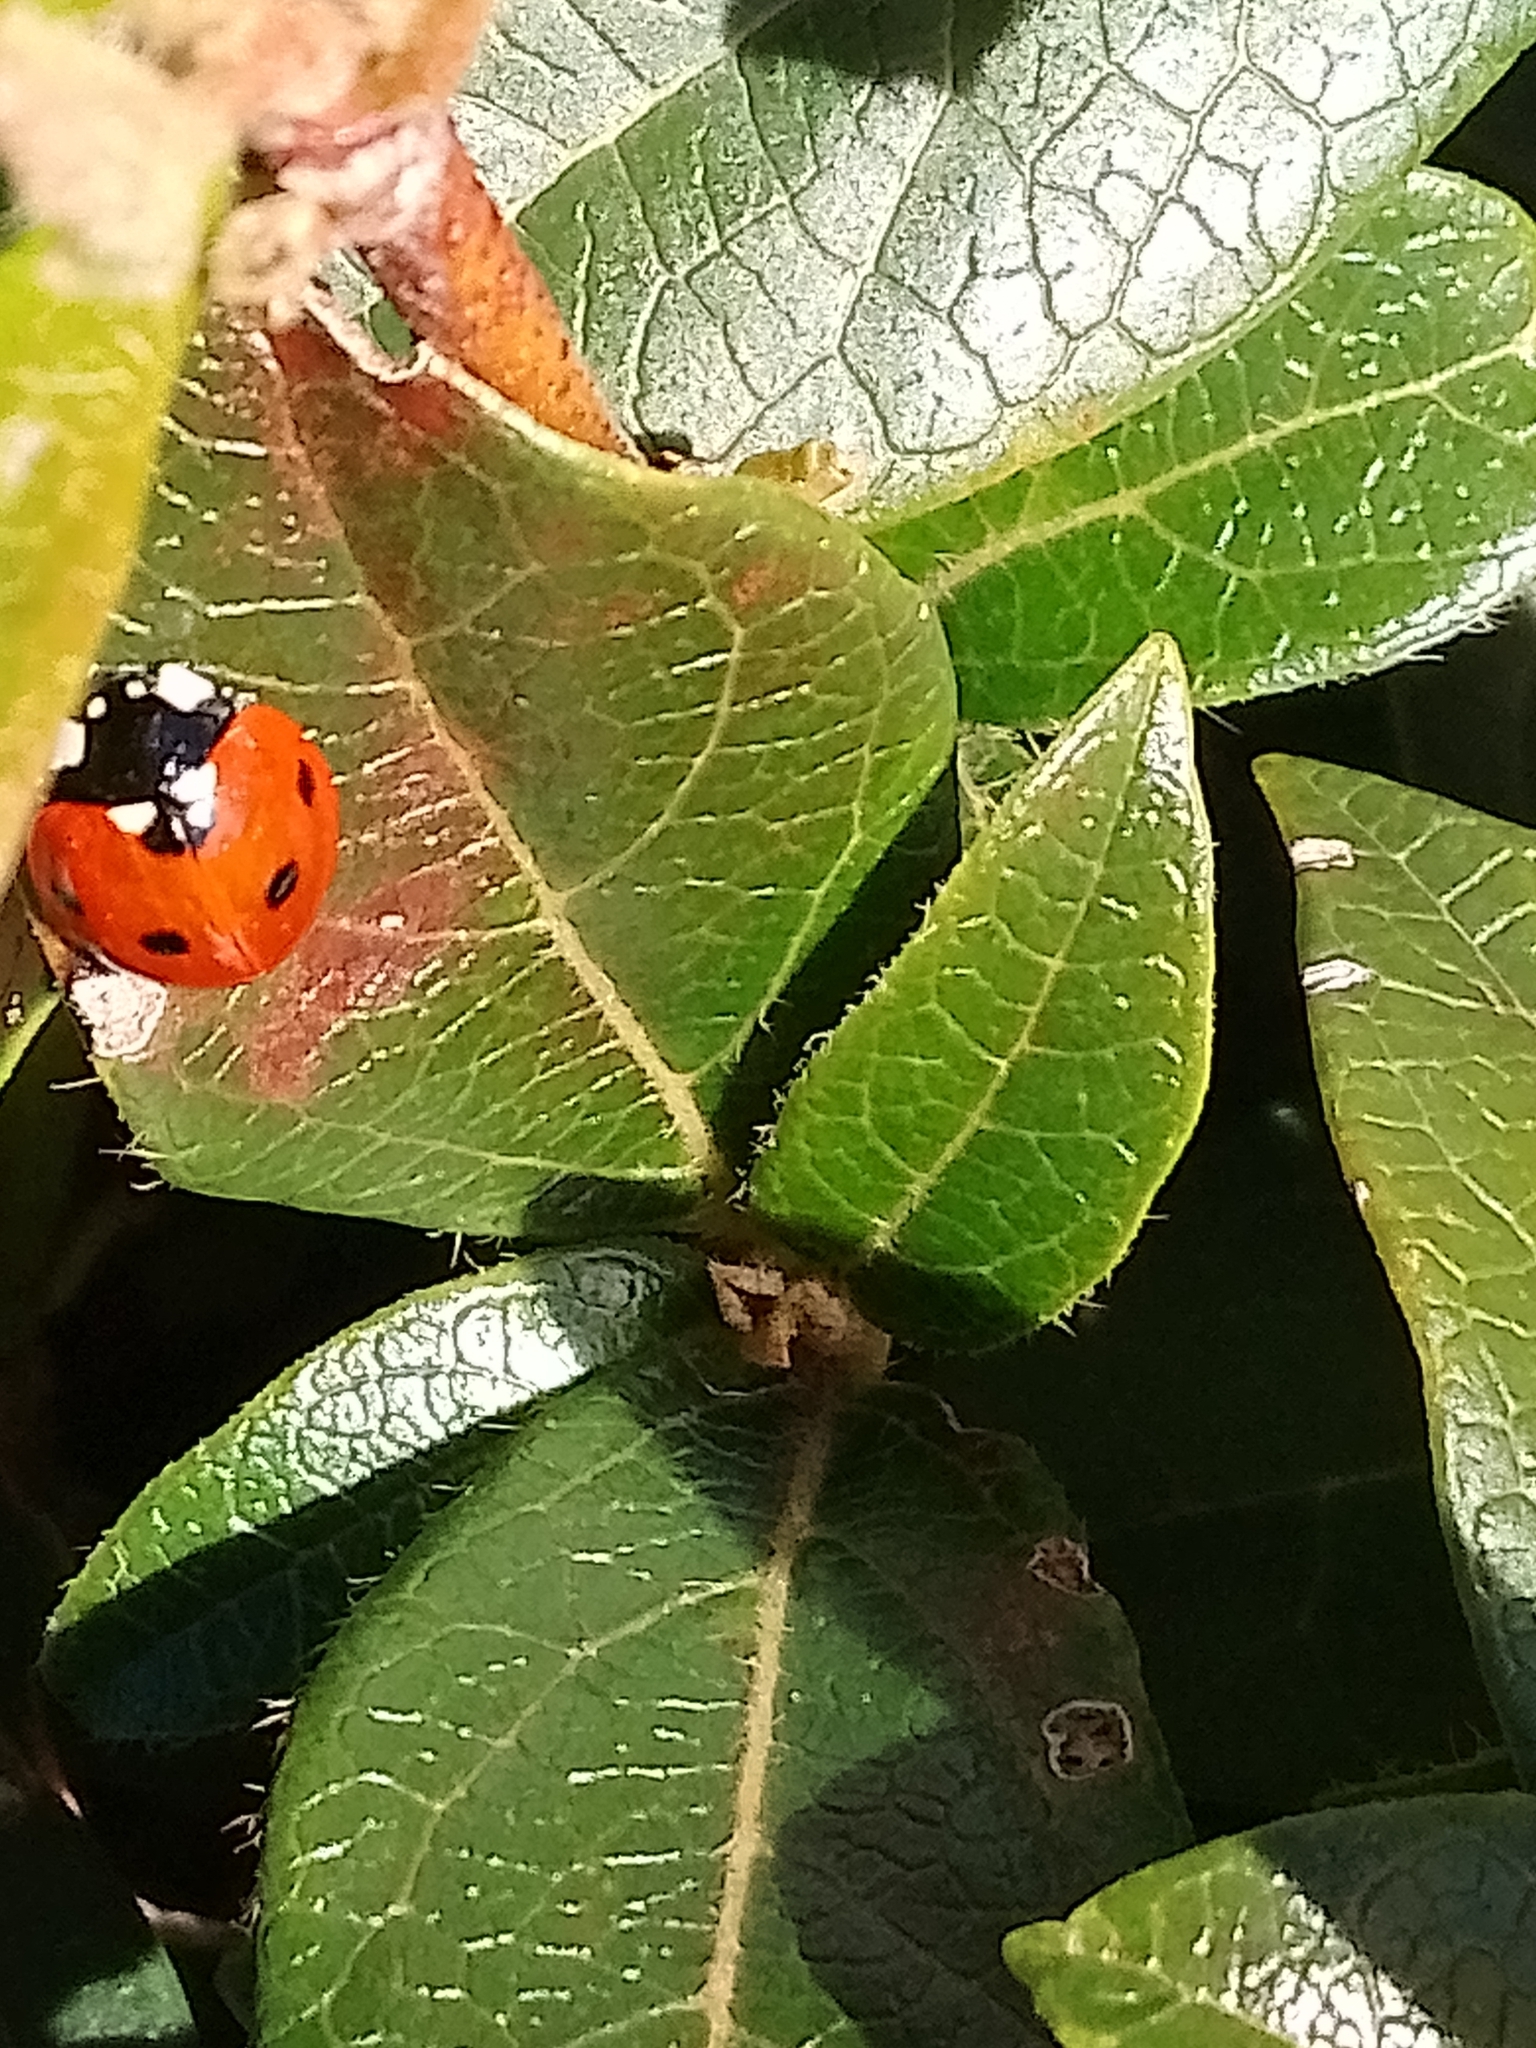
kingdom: Animalia
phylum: Arthropoda
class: Insecta
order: Coleoptera
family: Coccinellidae
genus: Coccinella
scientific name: Coccinella septempunctata
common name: Sevenspotted lady beetle
